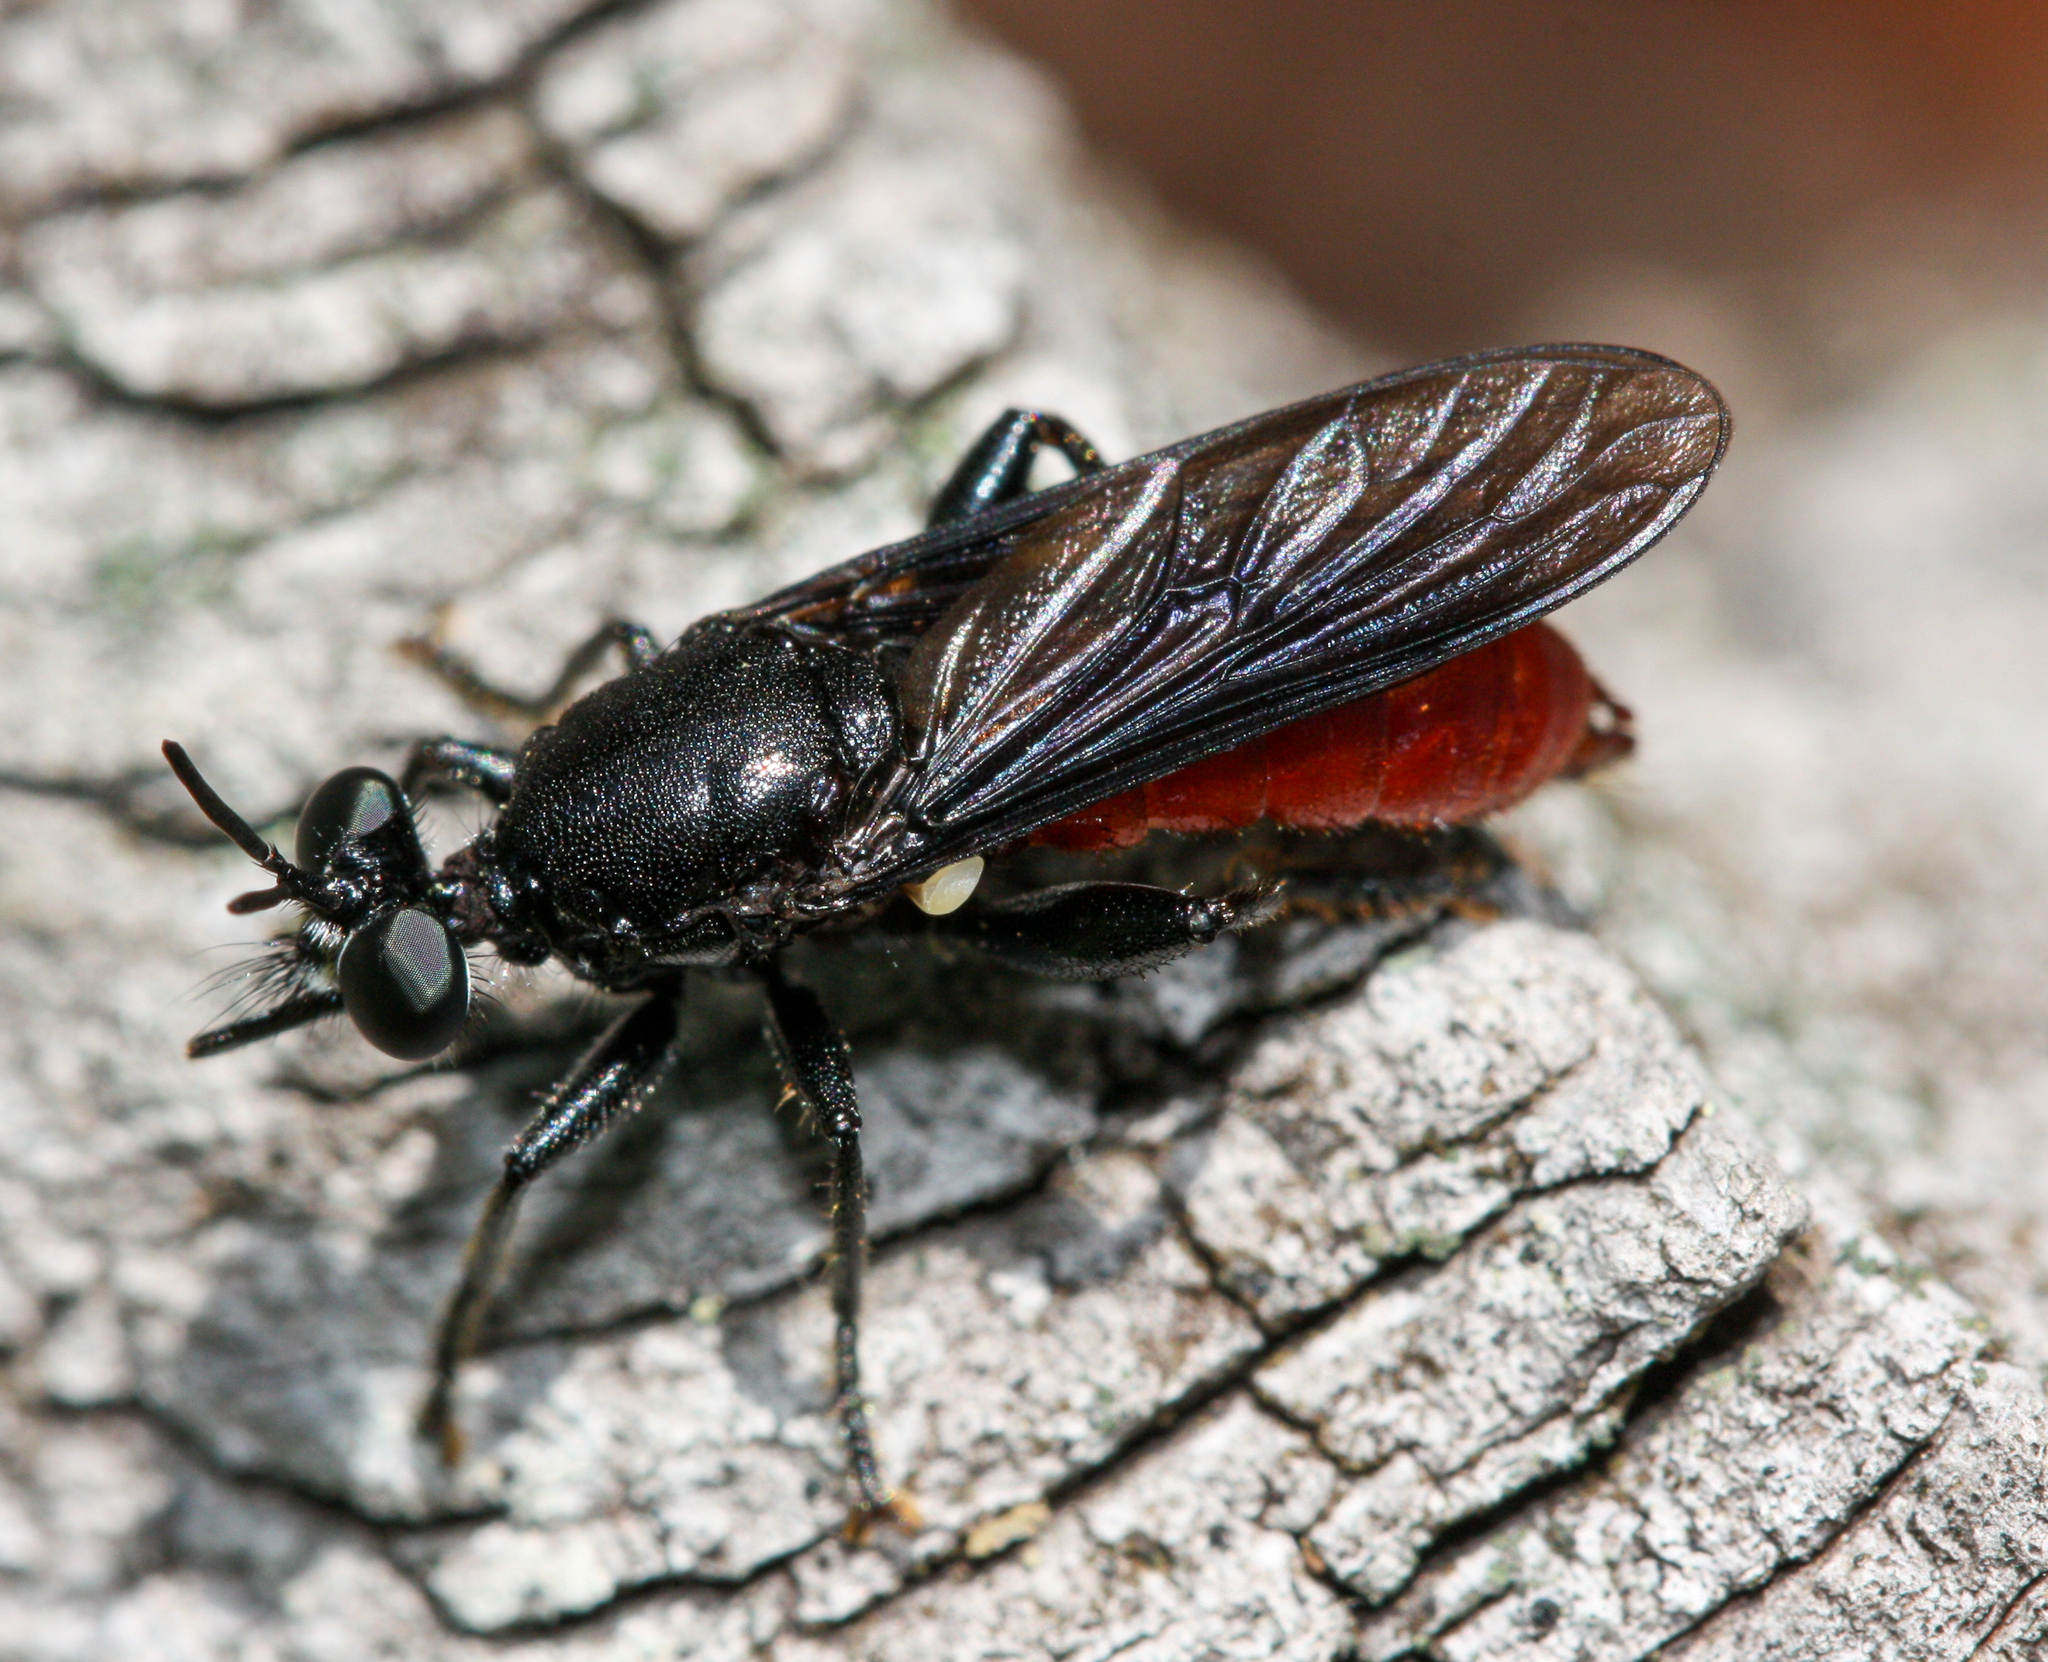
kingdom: Animalia
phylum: Arthropoda
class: Insecta
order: Diptera
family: Asilidae
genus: Lampria
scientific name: Lampria bicolor
